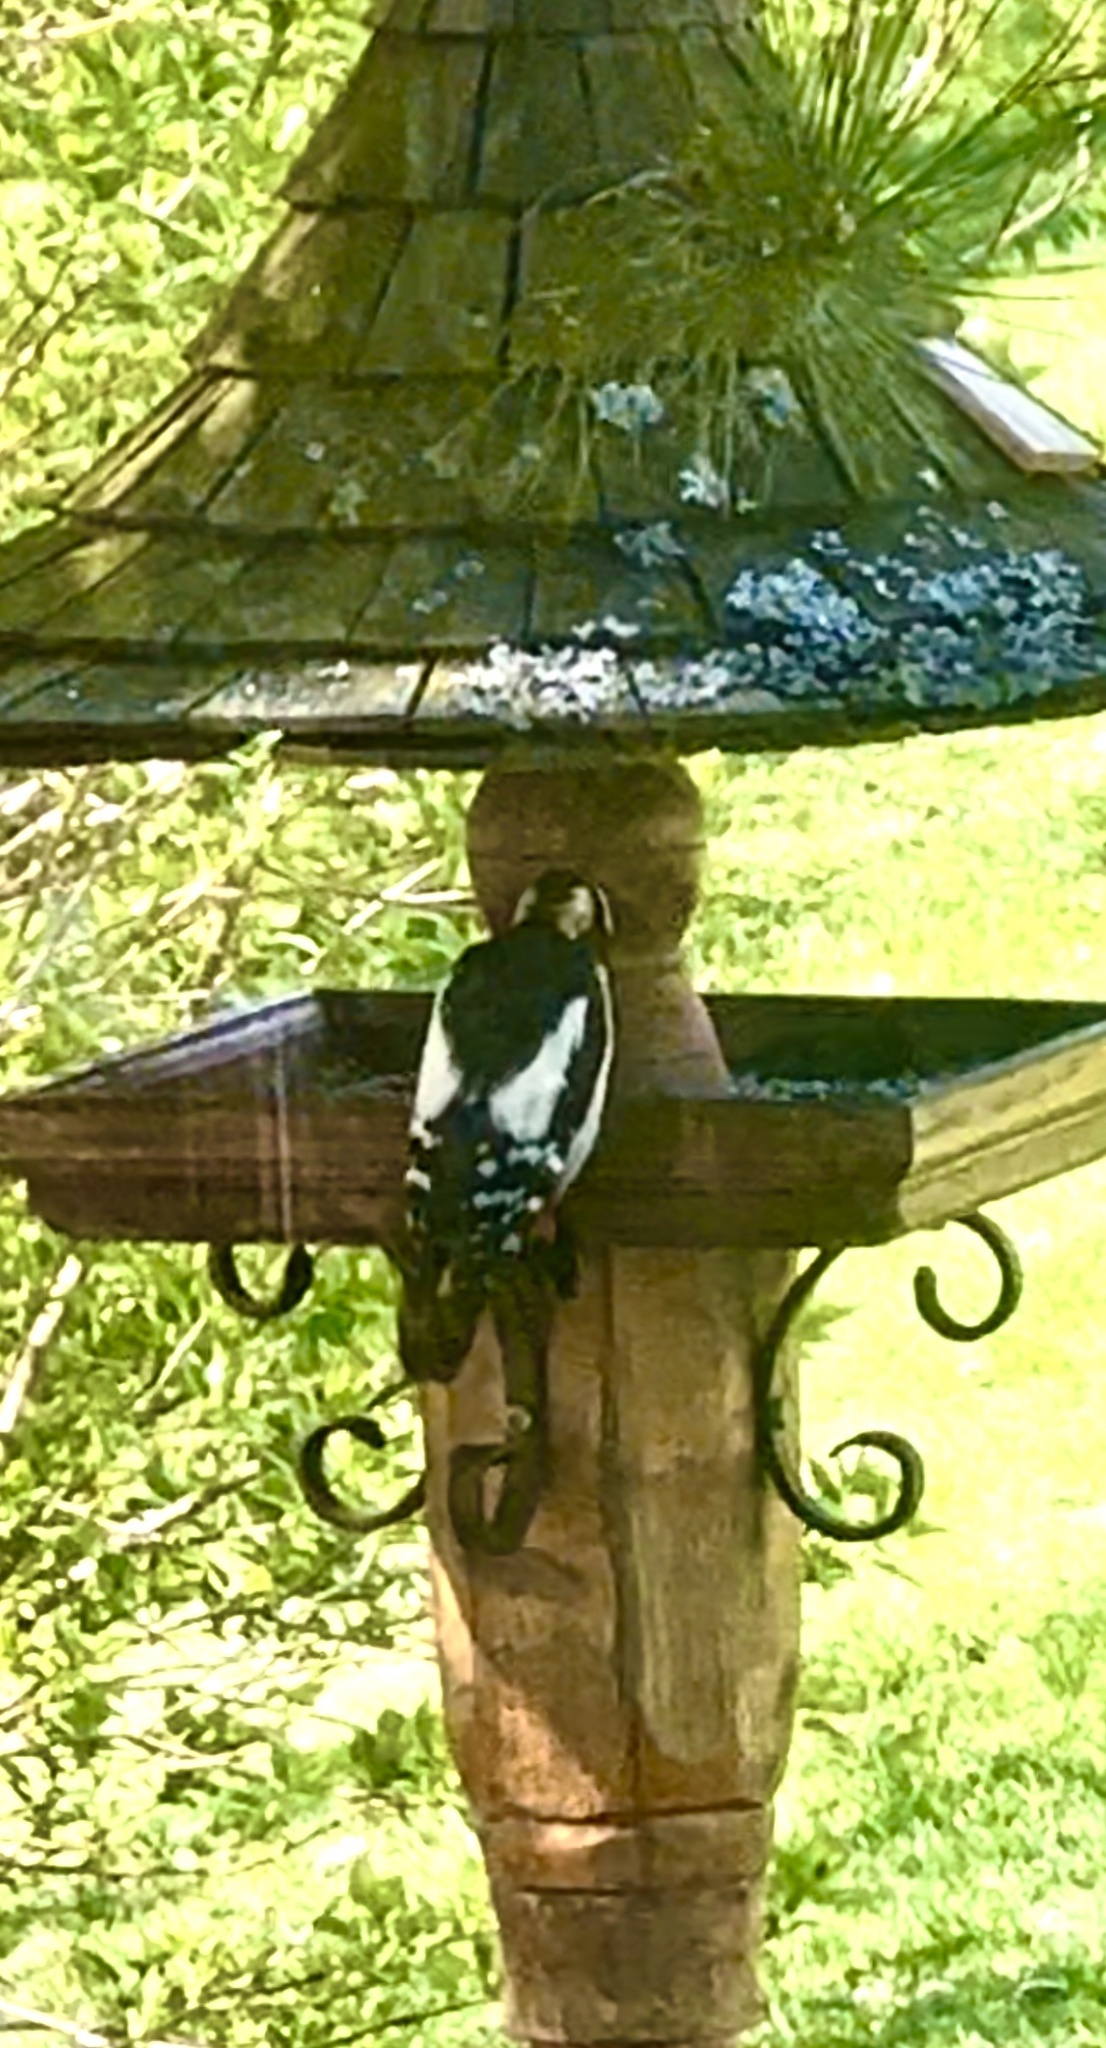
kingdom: Animalia
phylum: Chordata
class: Aves
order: Piciformes
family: Picidae
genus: Dendrocopos
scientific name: Dendrocopos major
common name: Great spotted woodpecker
